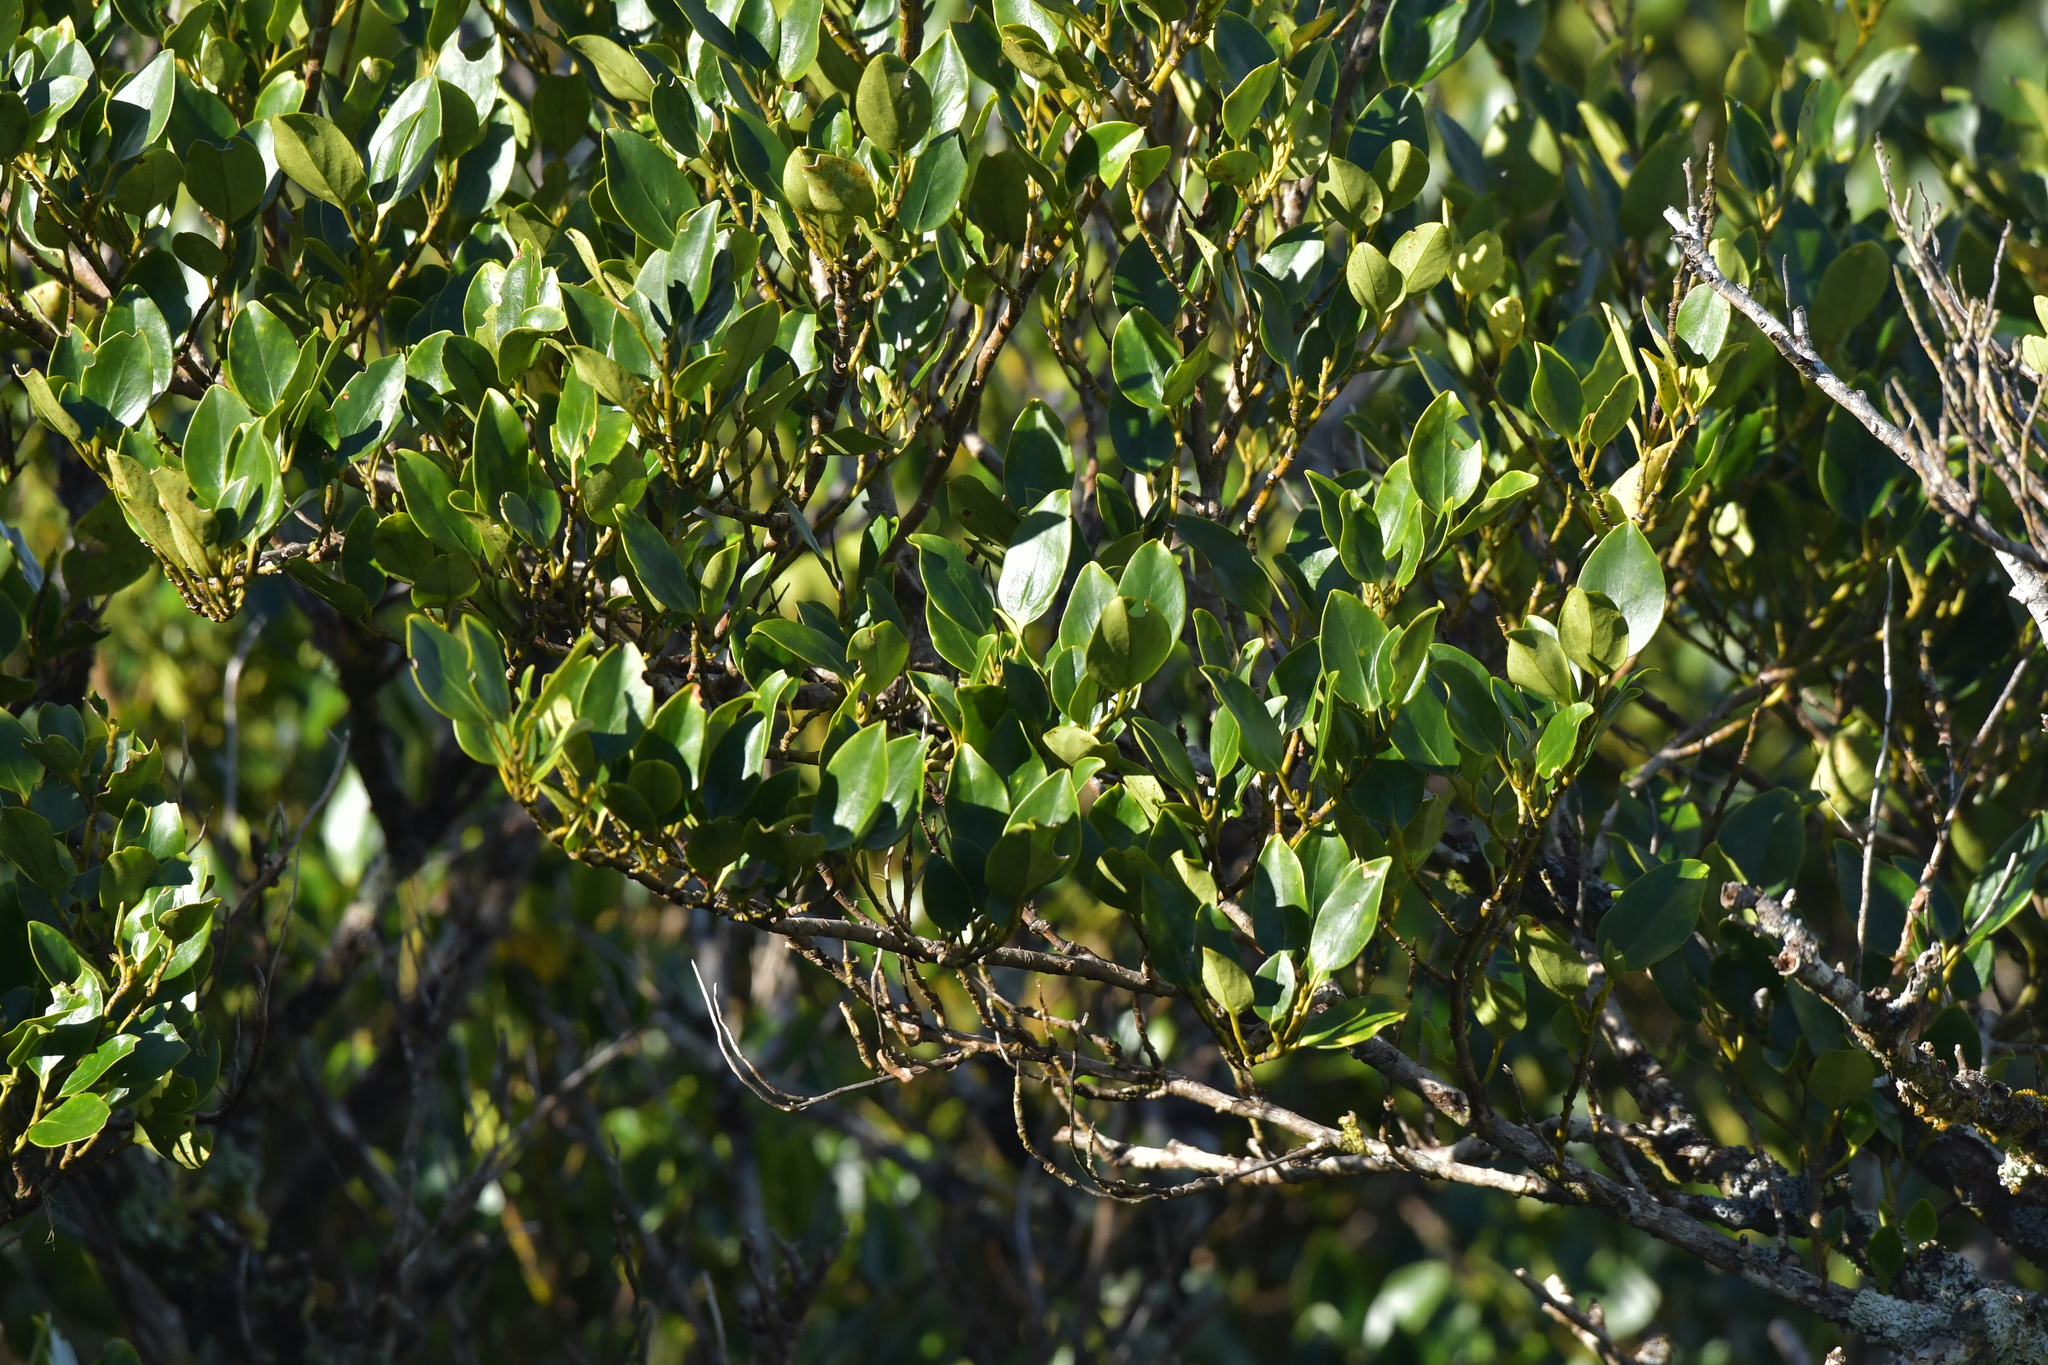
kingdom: Plantae
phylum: Tracheophyta
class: Magnoliopsida
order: Apiales
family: Griseliniaceae
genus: Griselinia
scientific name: Griselinia littoralis
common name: New zealand broadleaf
